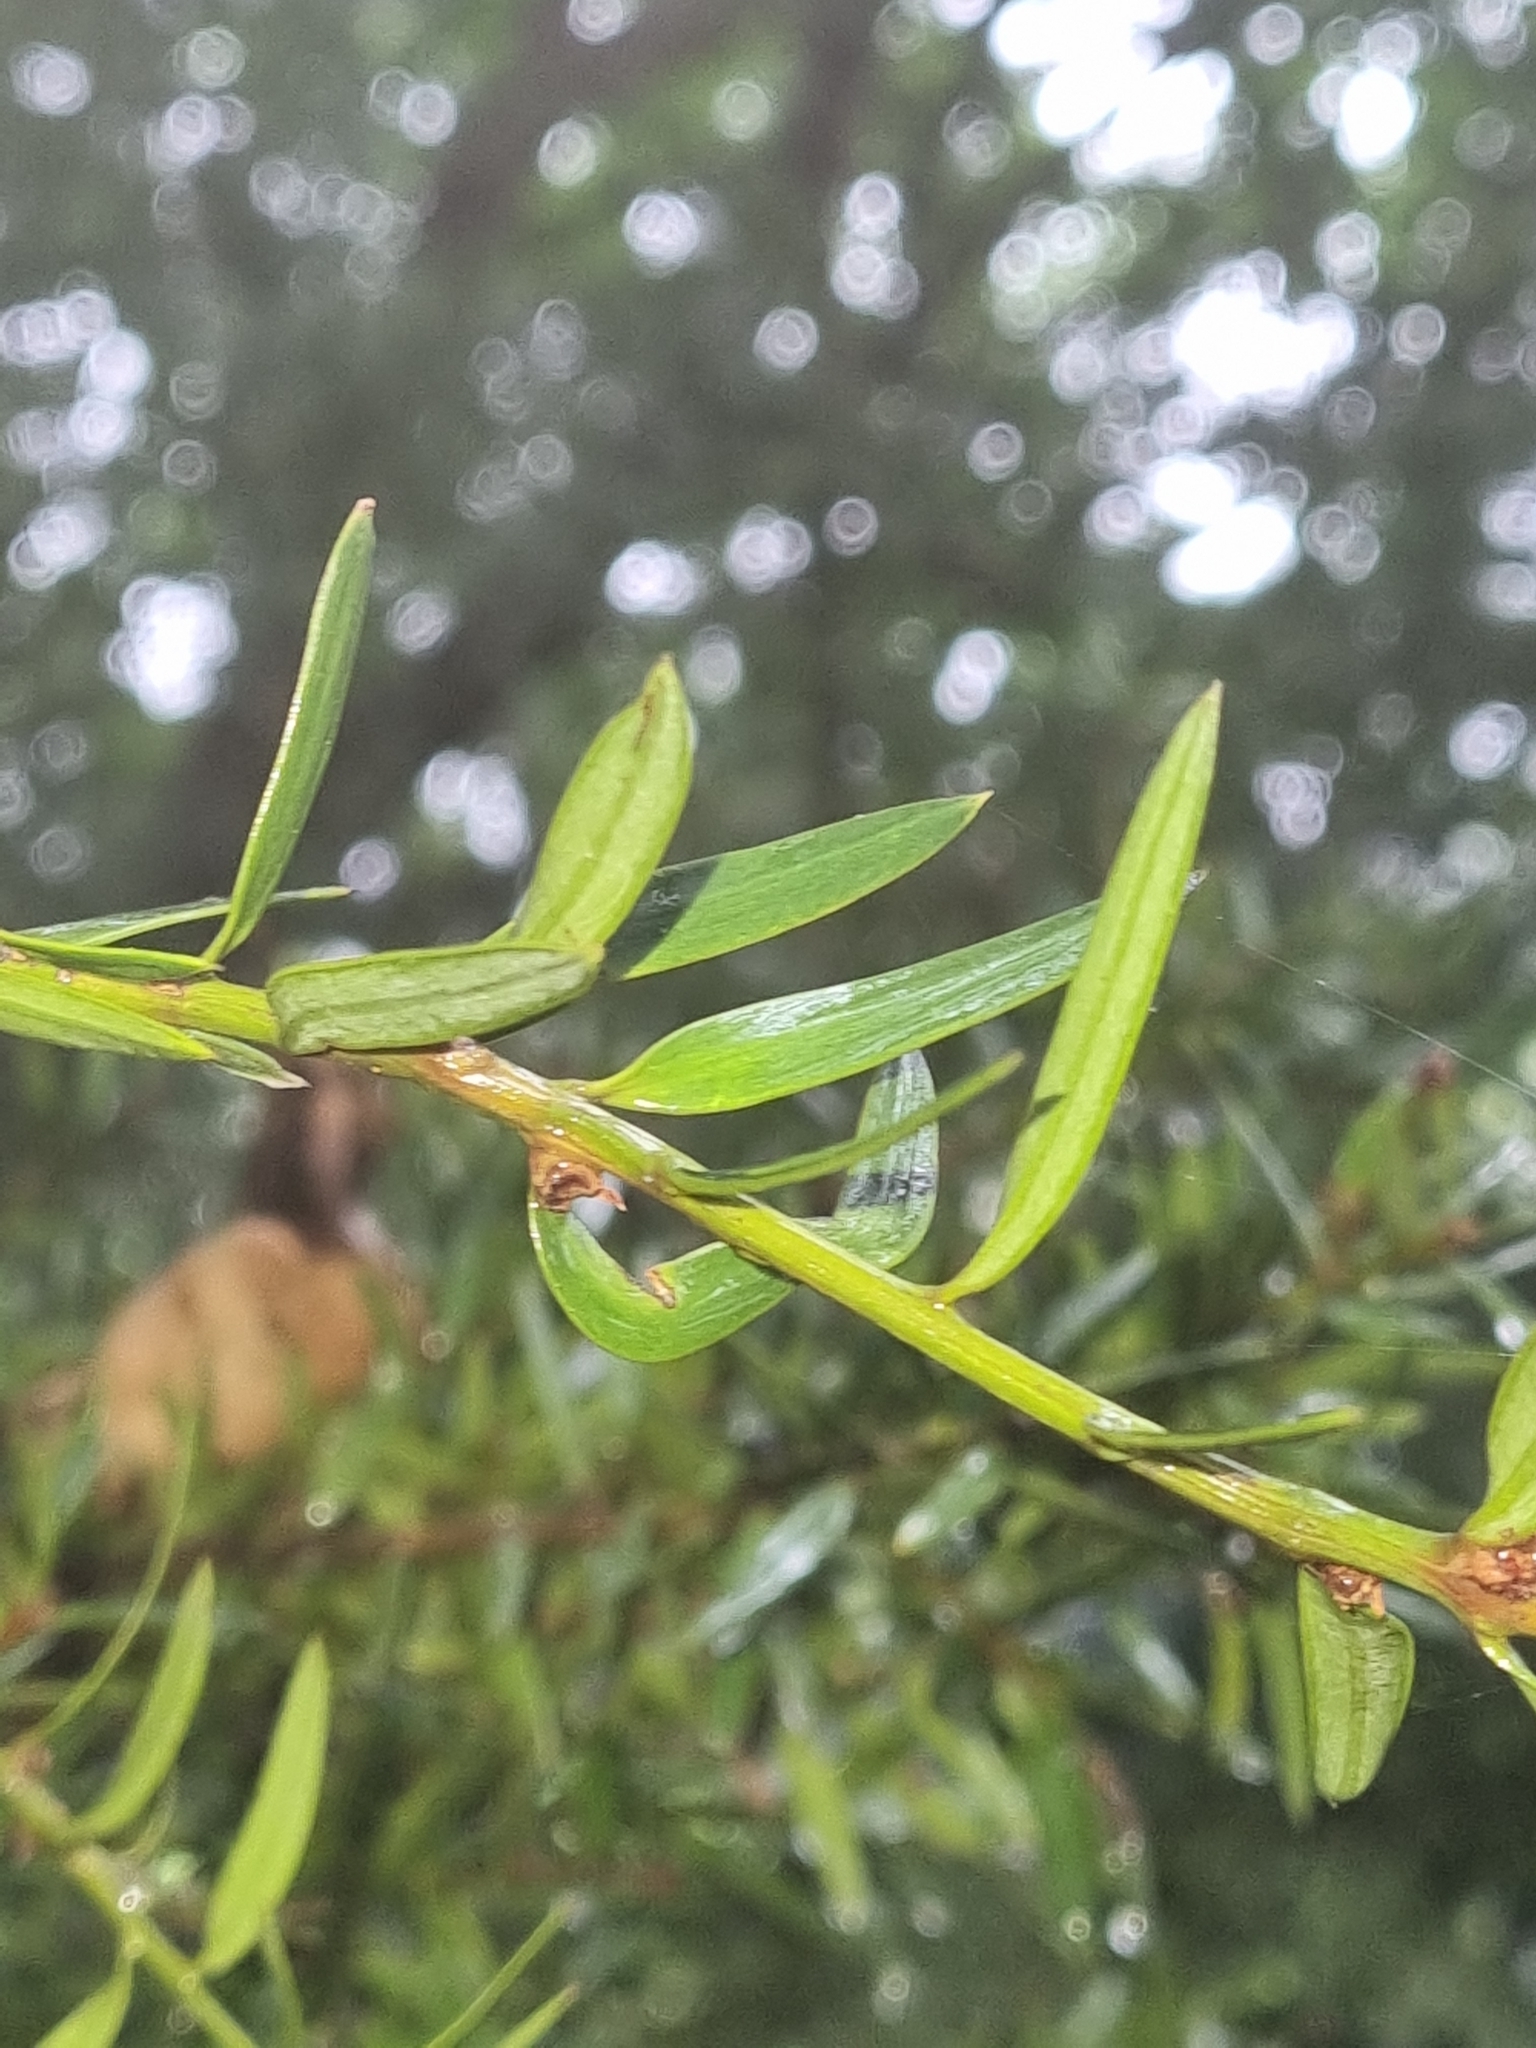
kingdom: Plantae
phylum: Tracheophyta
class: Pinopsida
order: Pinales
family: Podocarpaceae
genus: Podocarpus
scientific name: Podocarpus totara
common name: Totara
